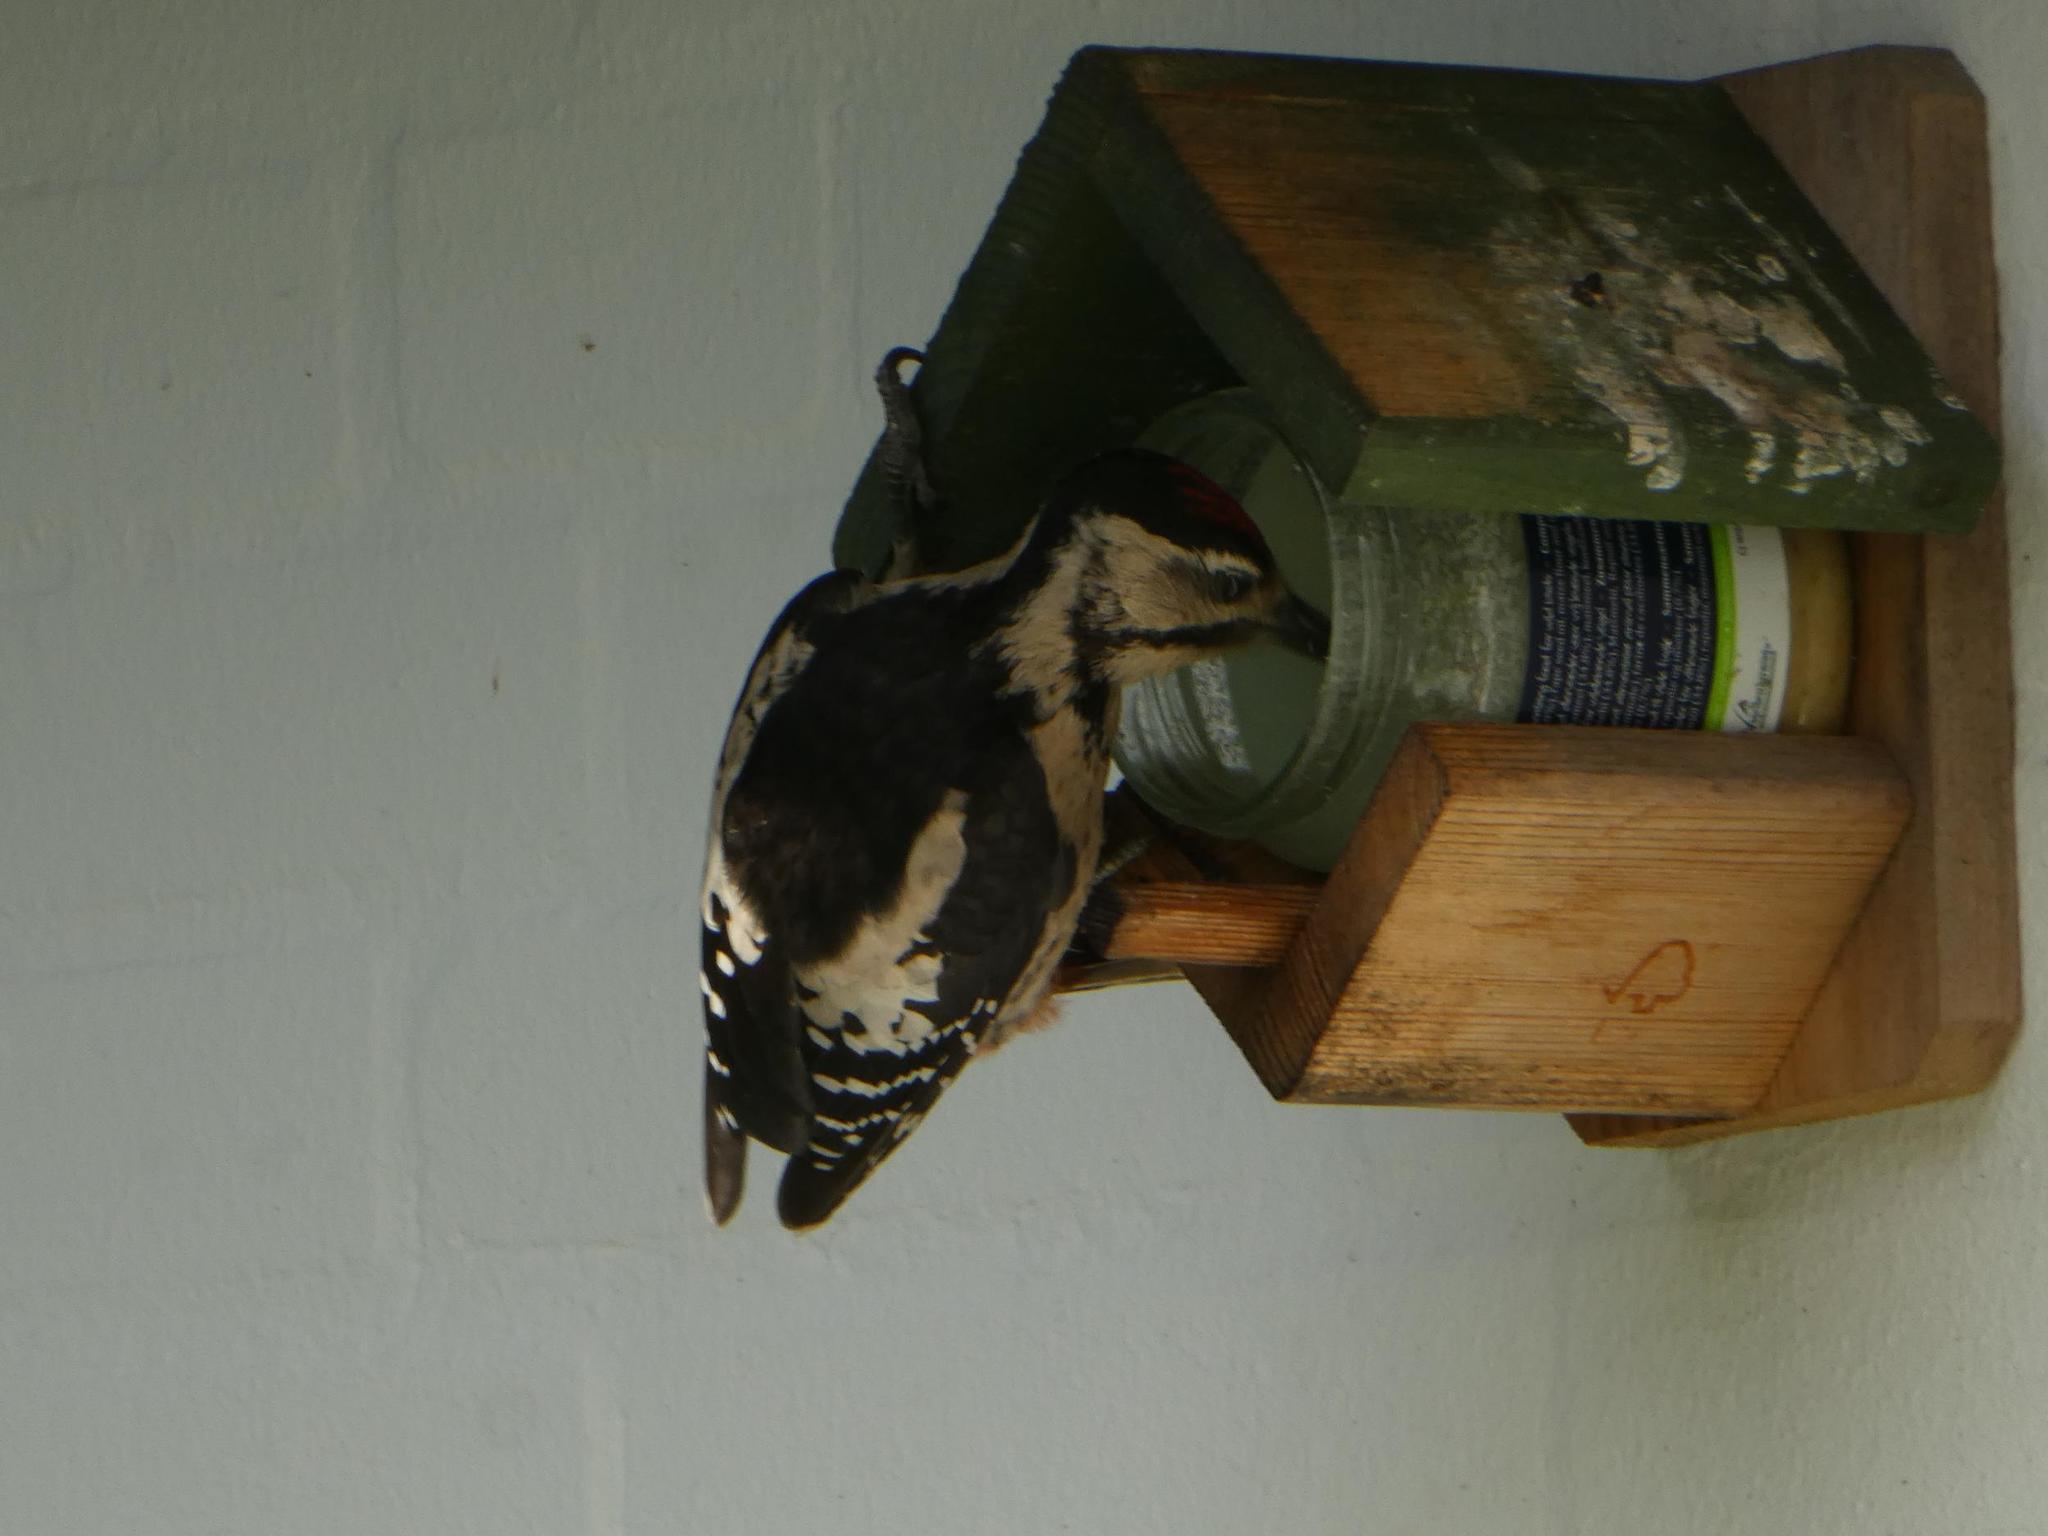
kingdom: Animalia
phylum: Chordata
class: Aves
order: Piciformes
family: Picidae
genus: Dendrocopos
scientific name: Dendrocopos major
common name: Great spotted woodpecker
